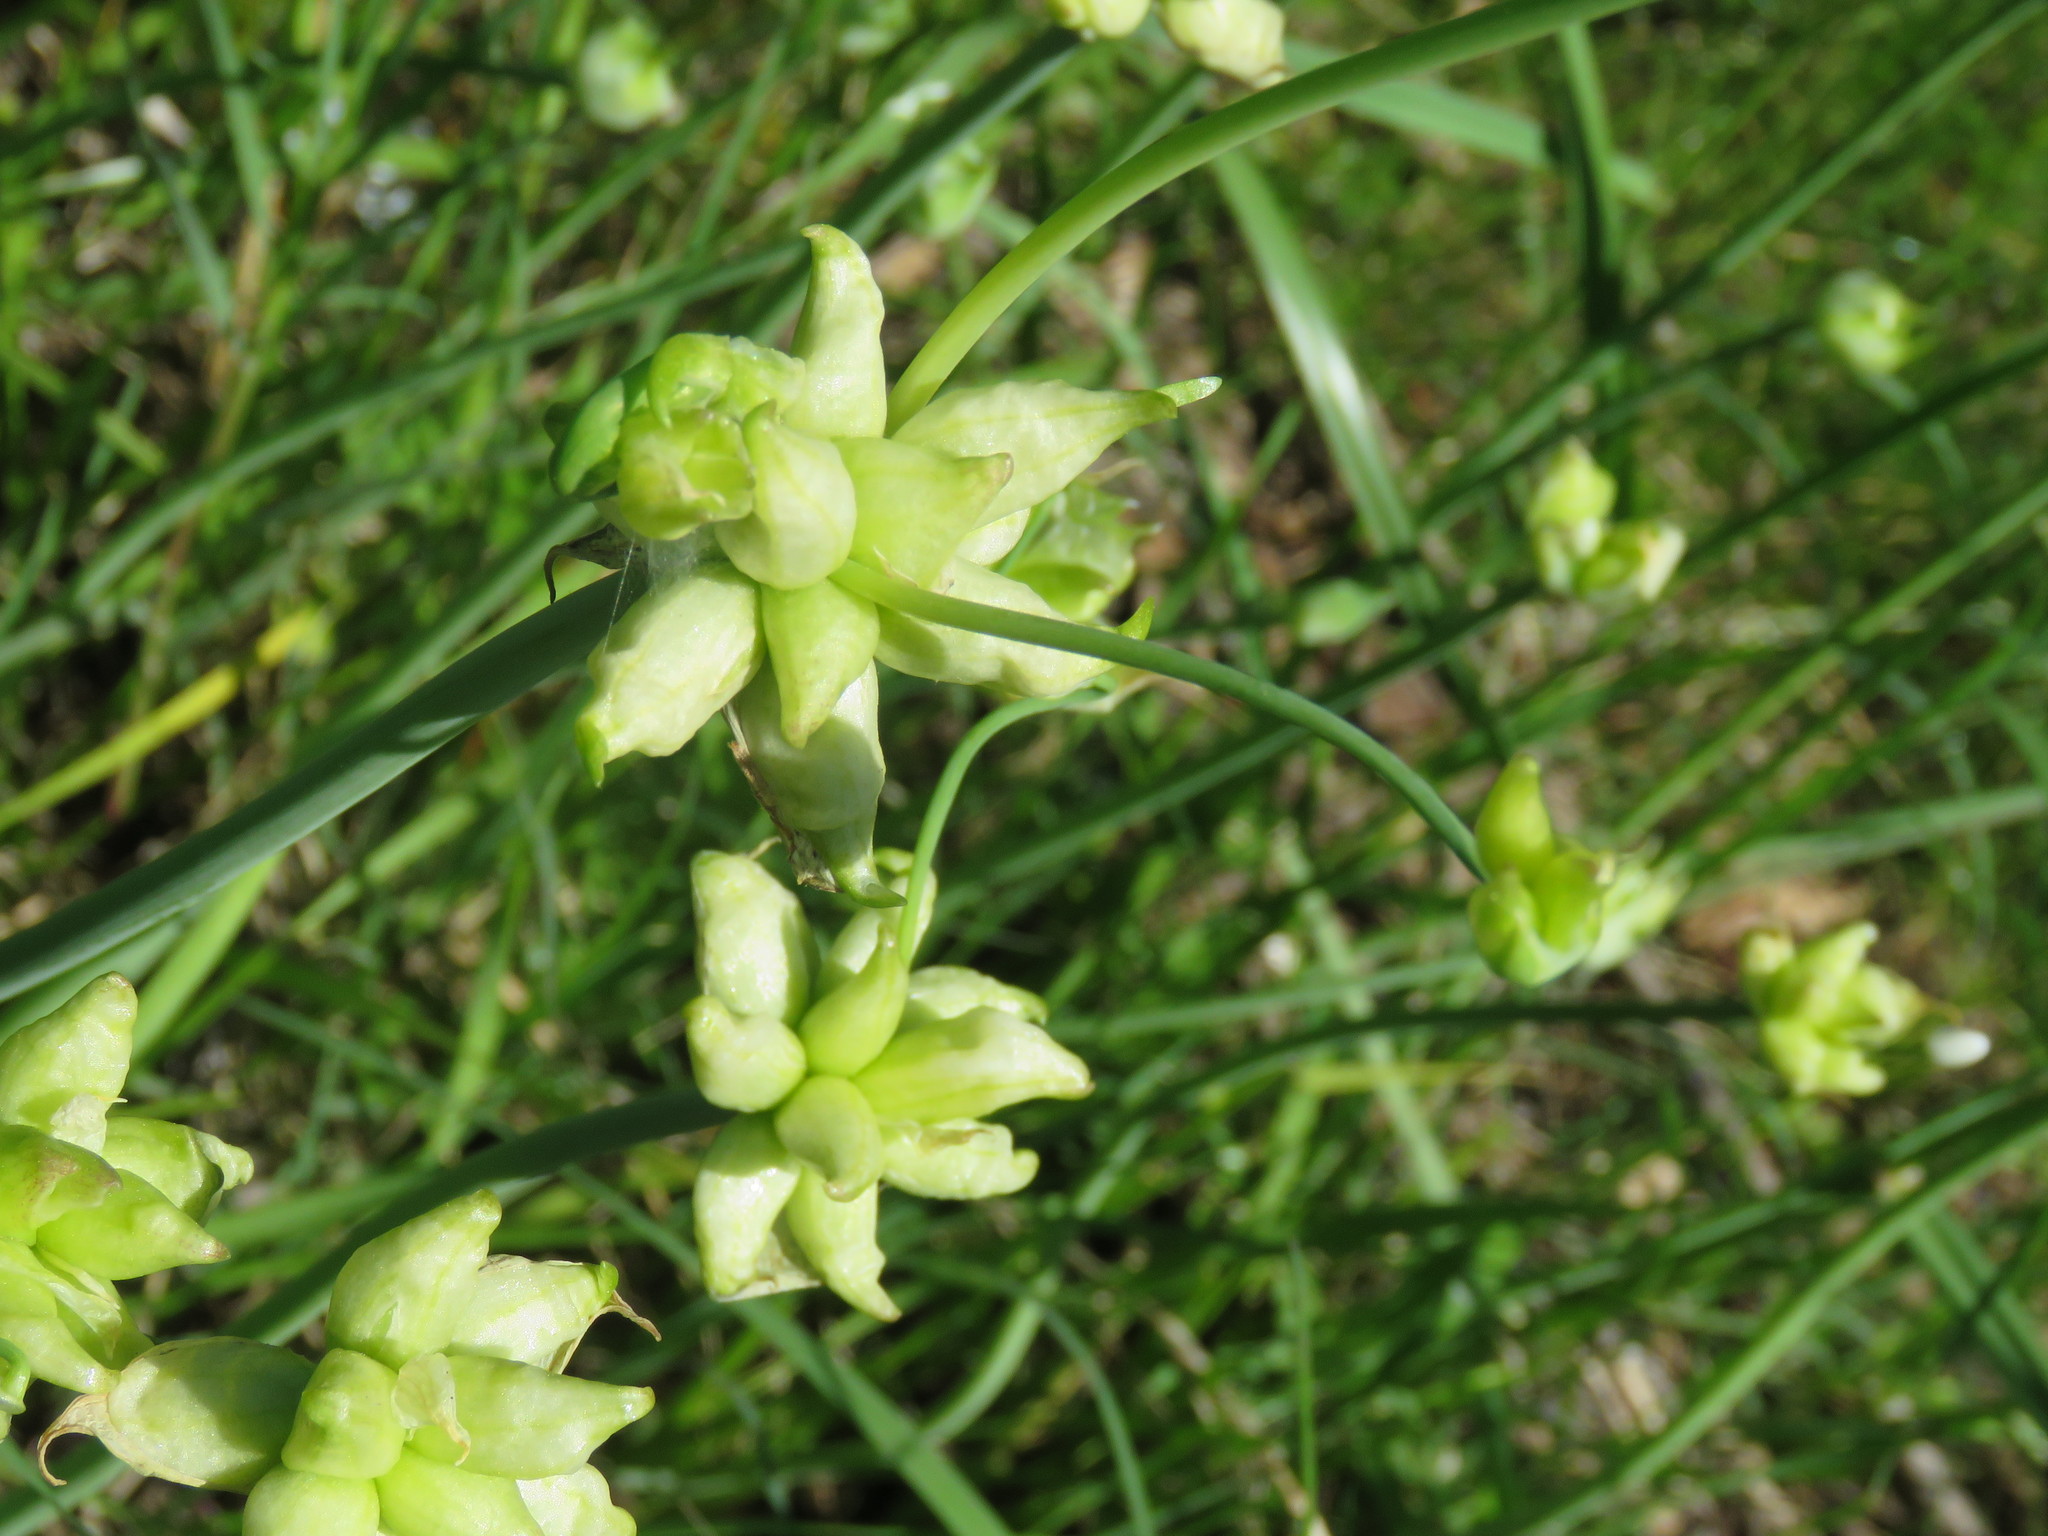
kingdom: Plantae
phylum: Tracheophyta
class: Liliopsida
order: Asparagales
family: Amaryllidaceae
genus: Allium
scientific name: Allium canadense
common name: Meadow garlic
